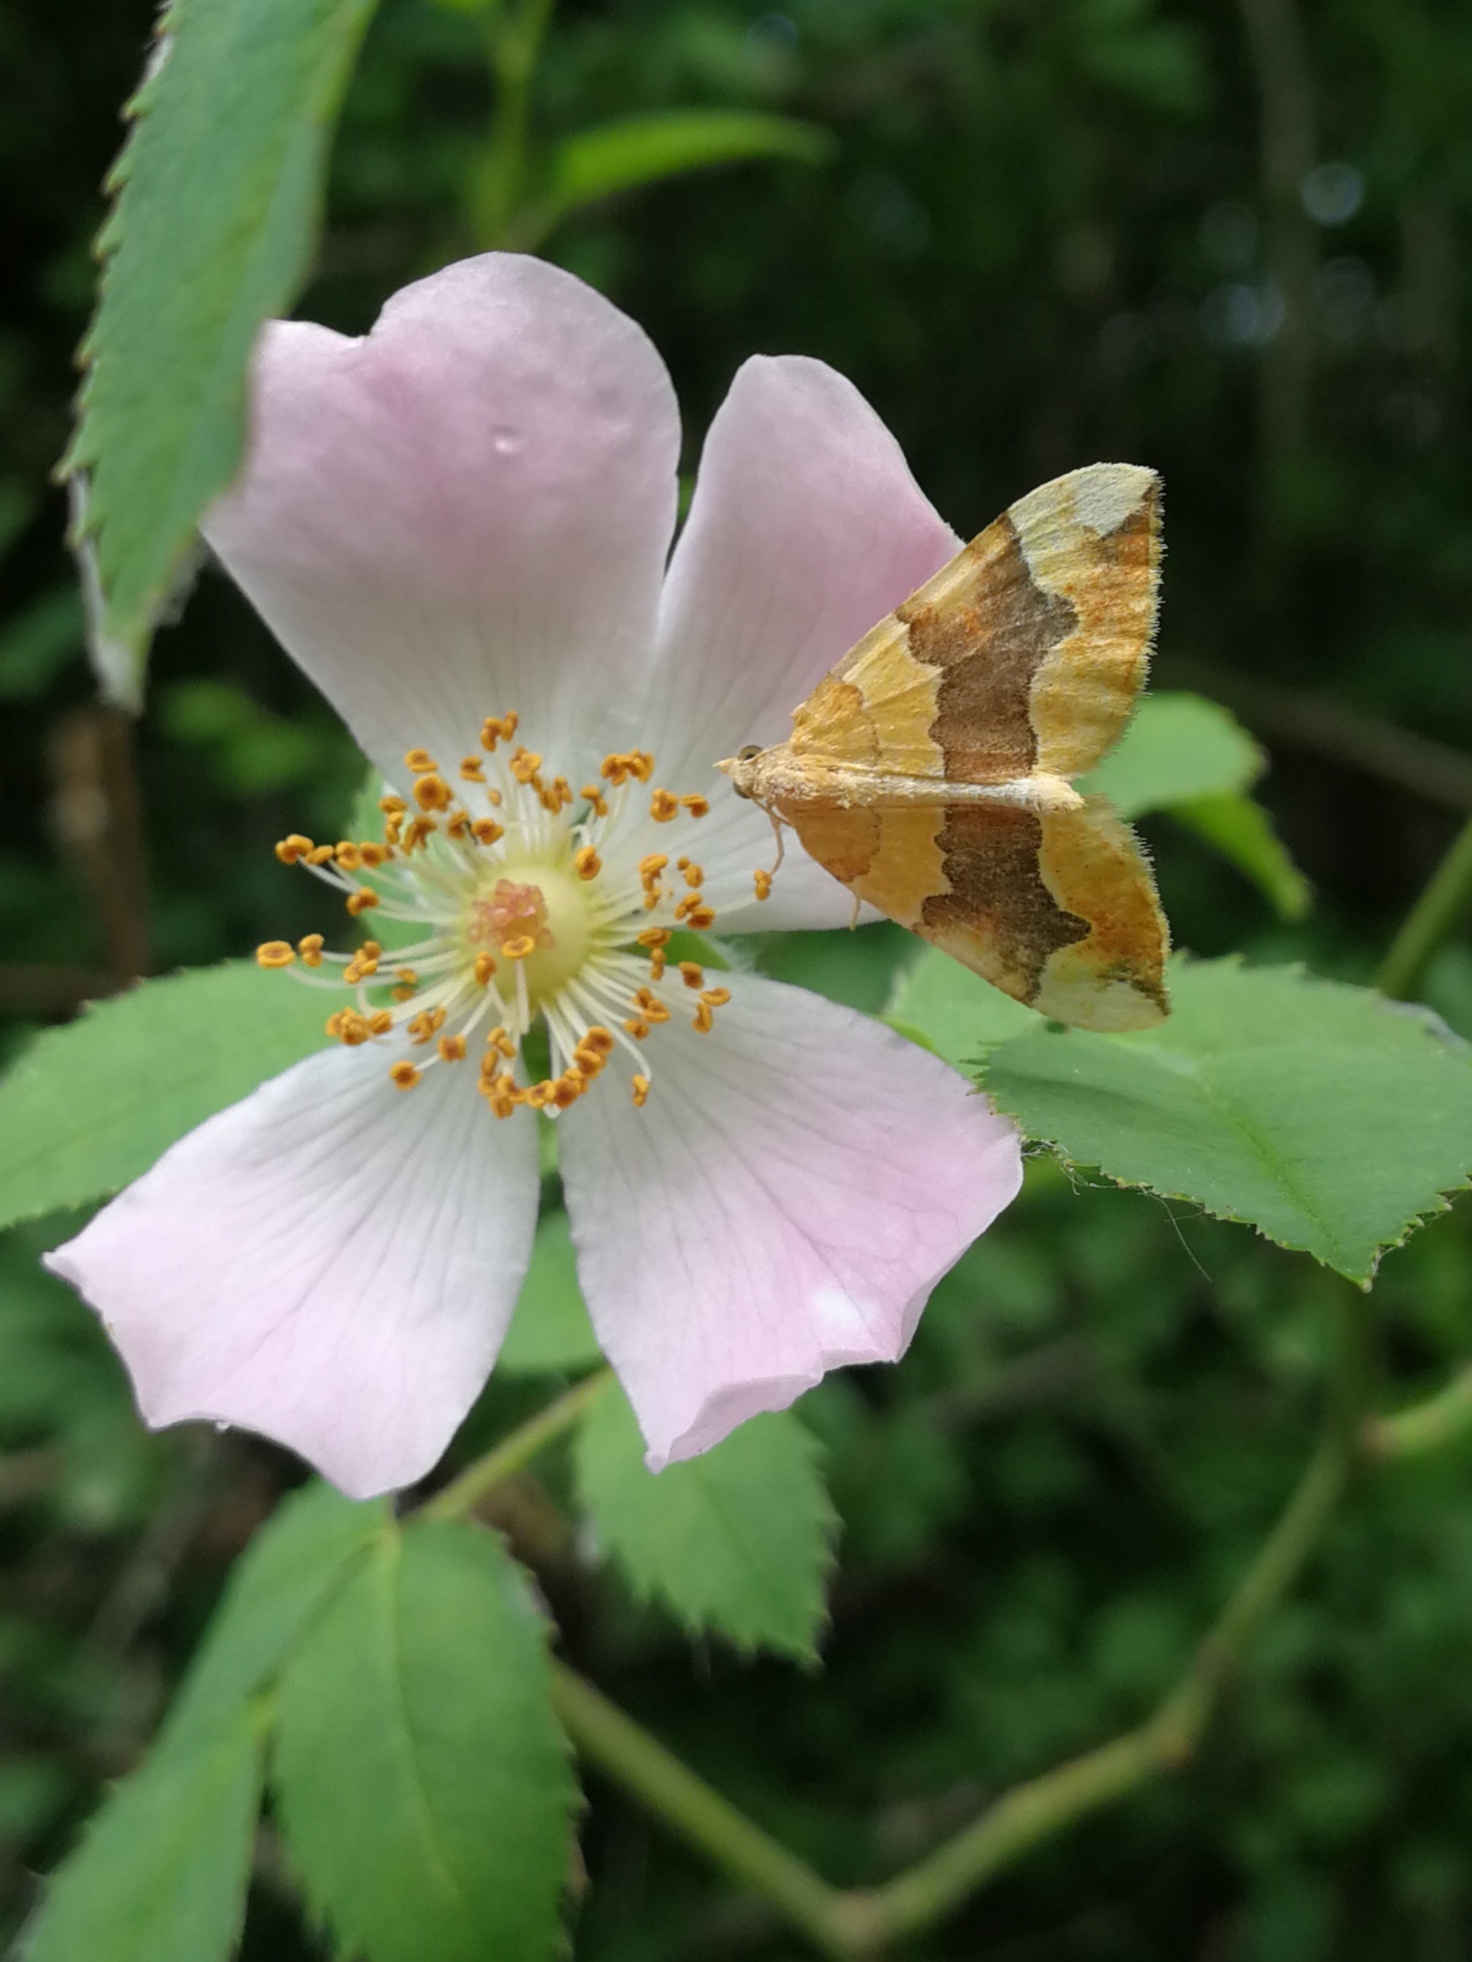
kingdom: Animalia
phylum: Arthropoda
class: Insecta
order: Lepidoptera
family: Geometridae
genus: Cidaria
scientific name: Cidaria fulvata
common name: Barred yellow
